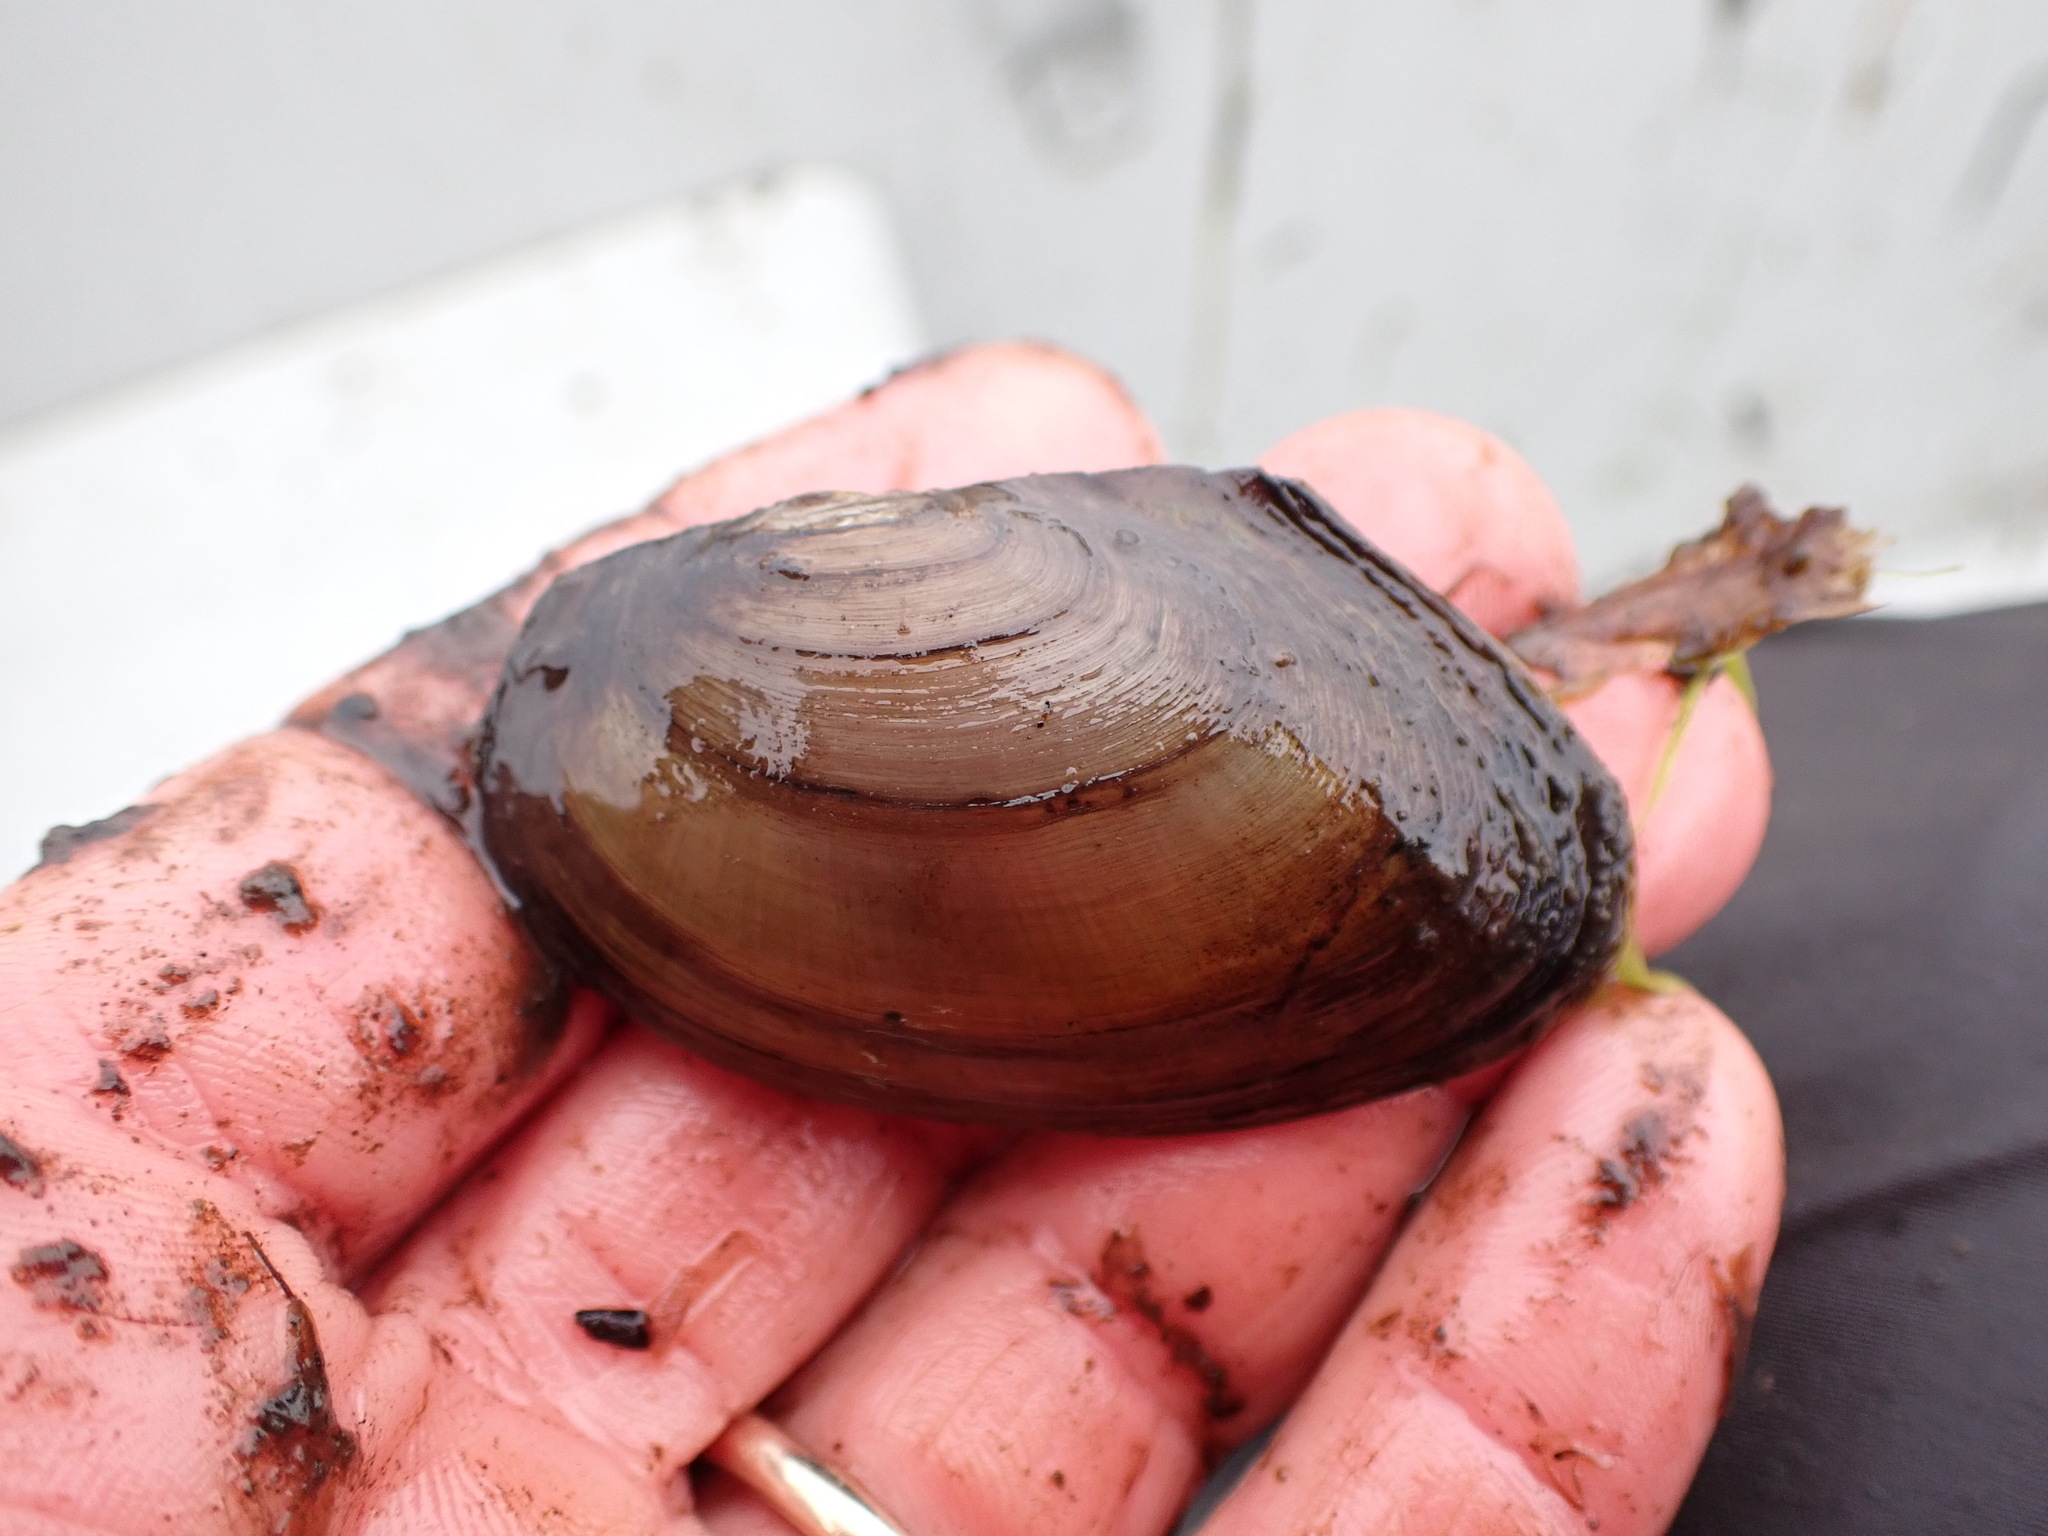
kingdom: Animalia
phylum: Mollusca
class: Bivalvia
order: Unionida
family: Unionidae
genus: Beringiana
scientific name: Beringiana beringiana
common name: Yukon floater
